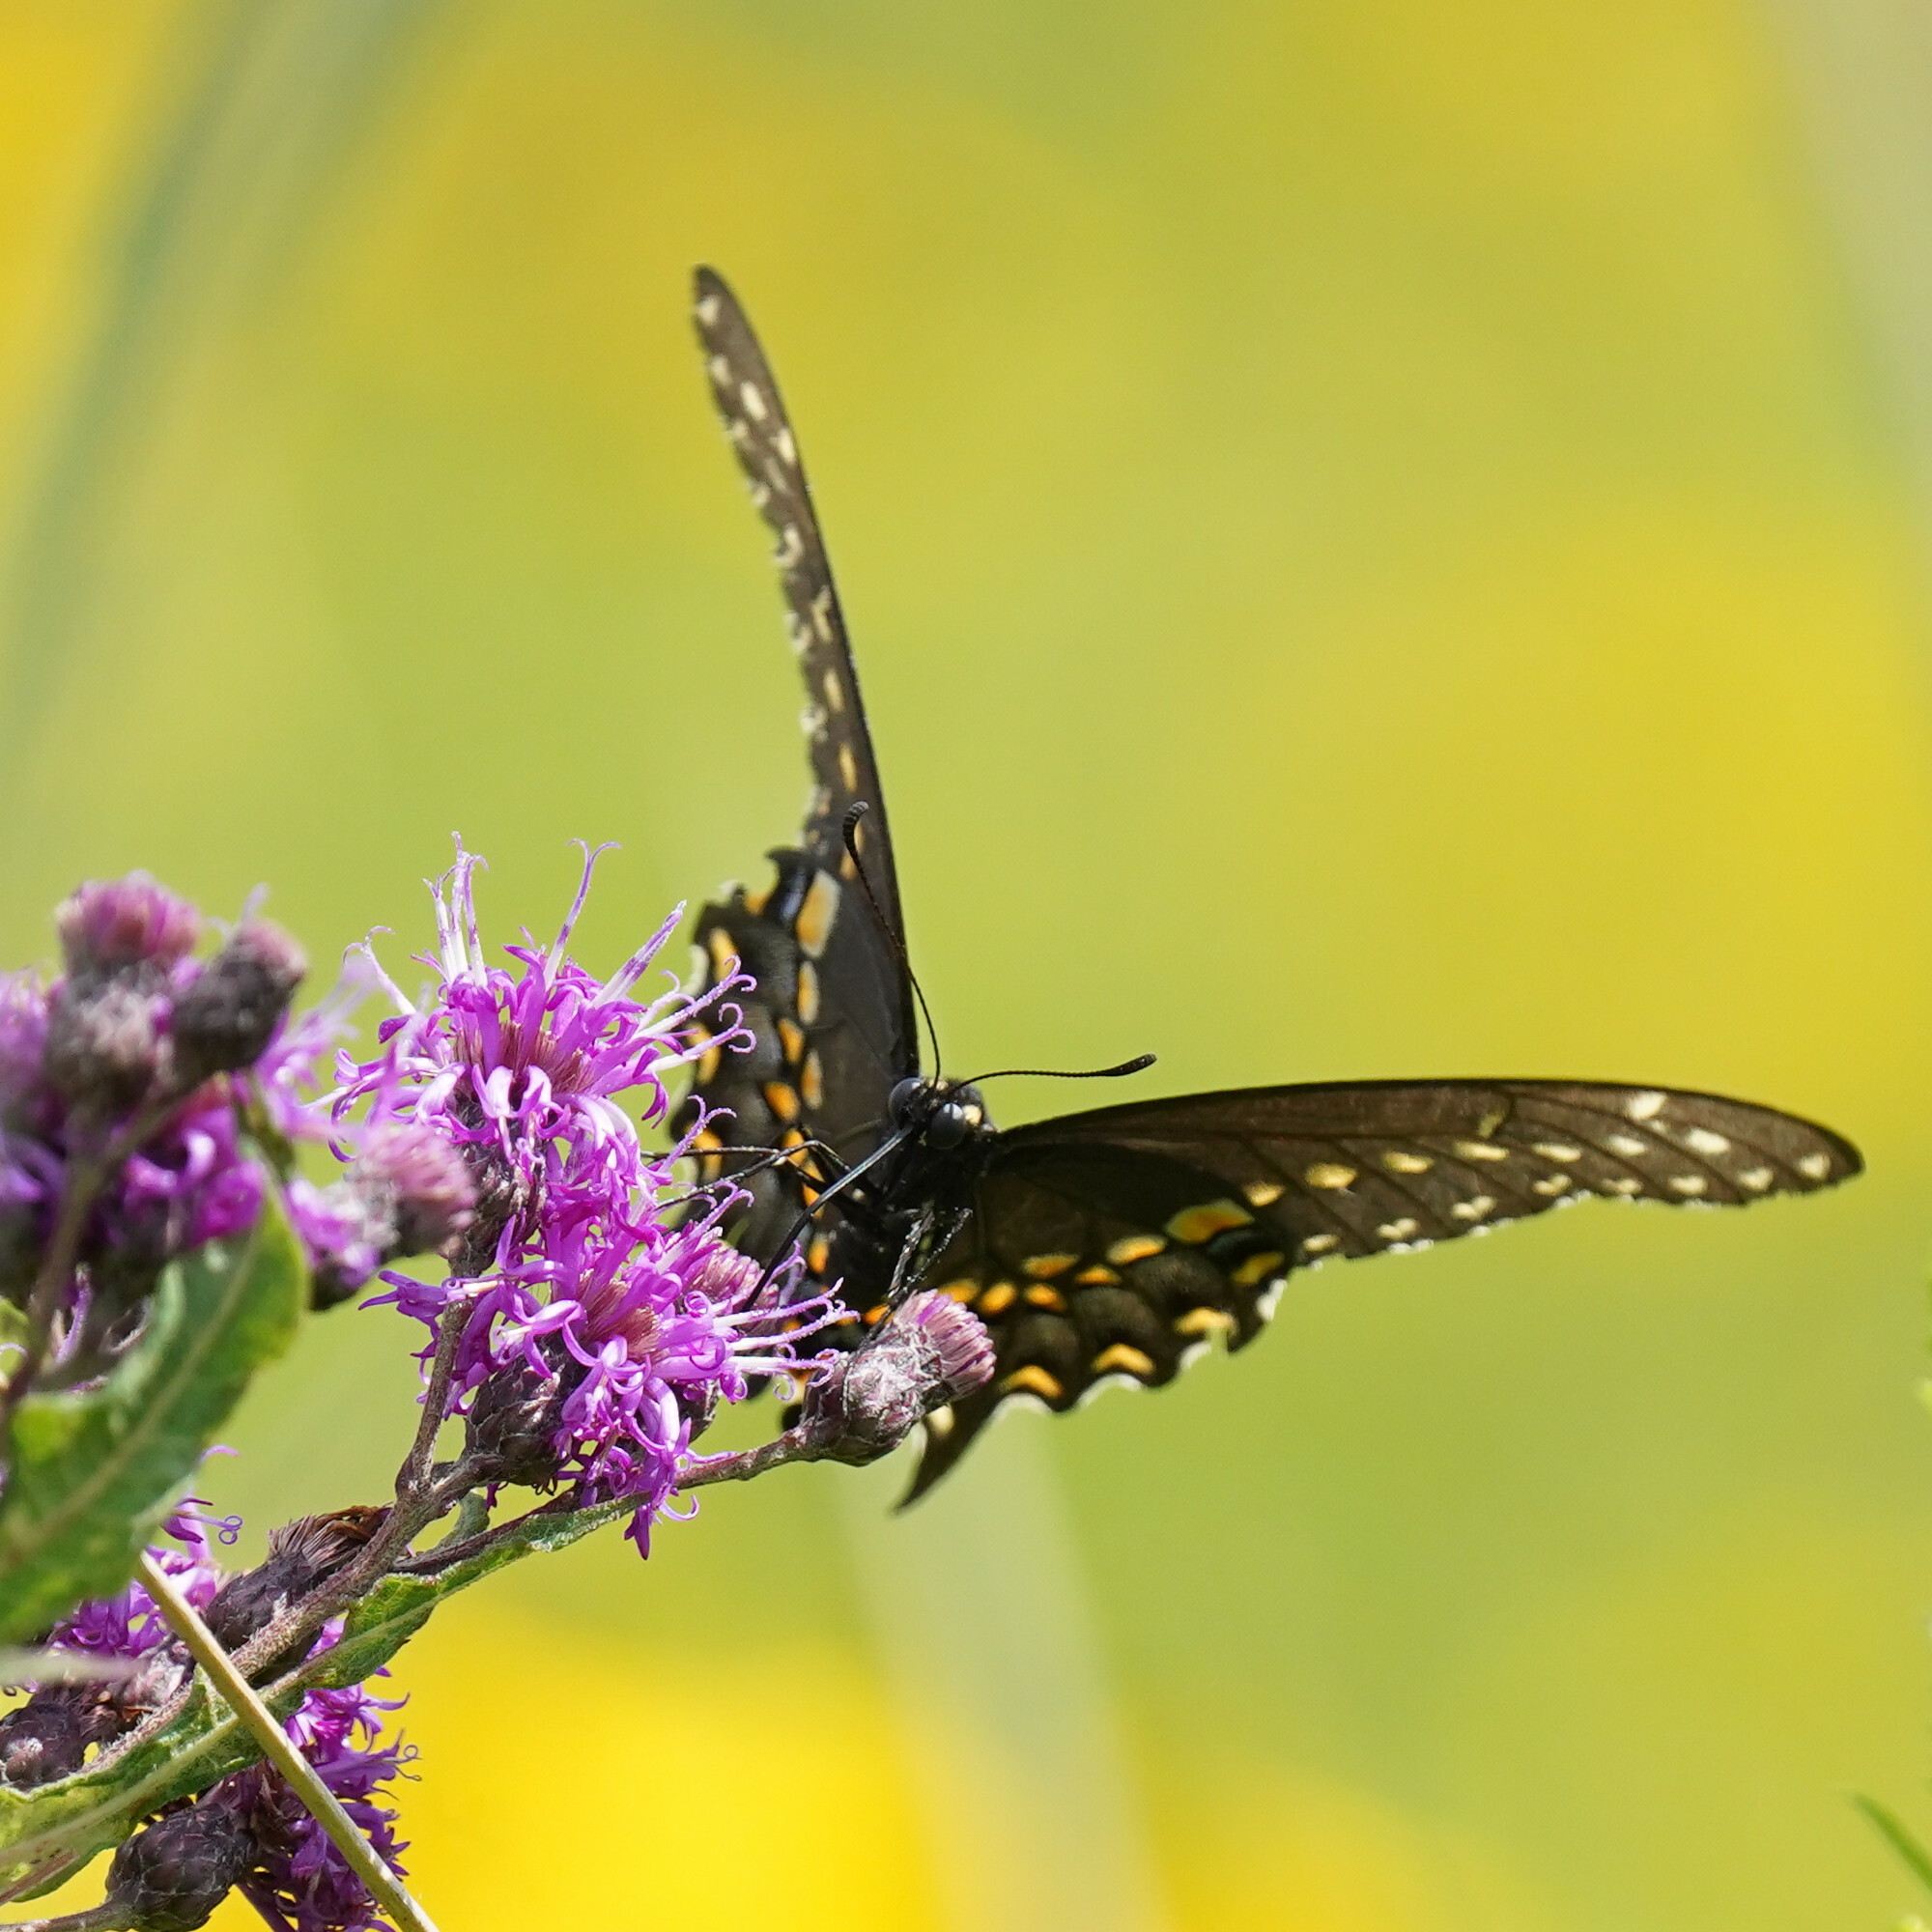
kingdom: Animalia
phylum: Arthropoda
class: Insecta
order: Lepidoptera
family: Papilionidae
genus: Papilio
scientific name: Papilio polyxenes
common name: Black swallowtail
